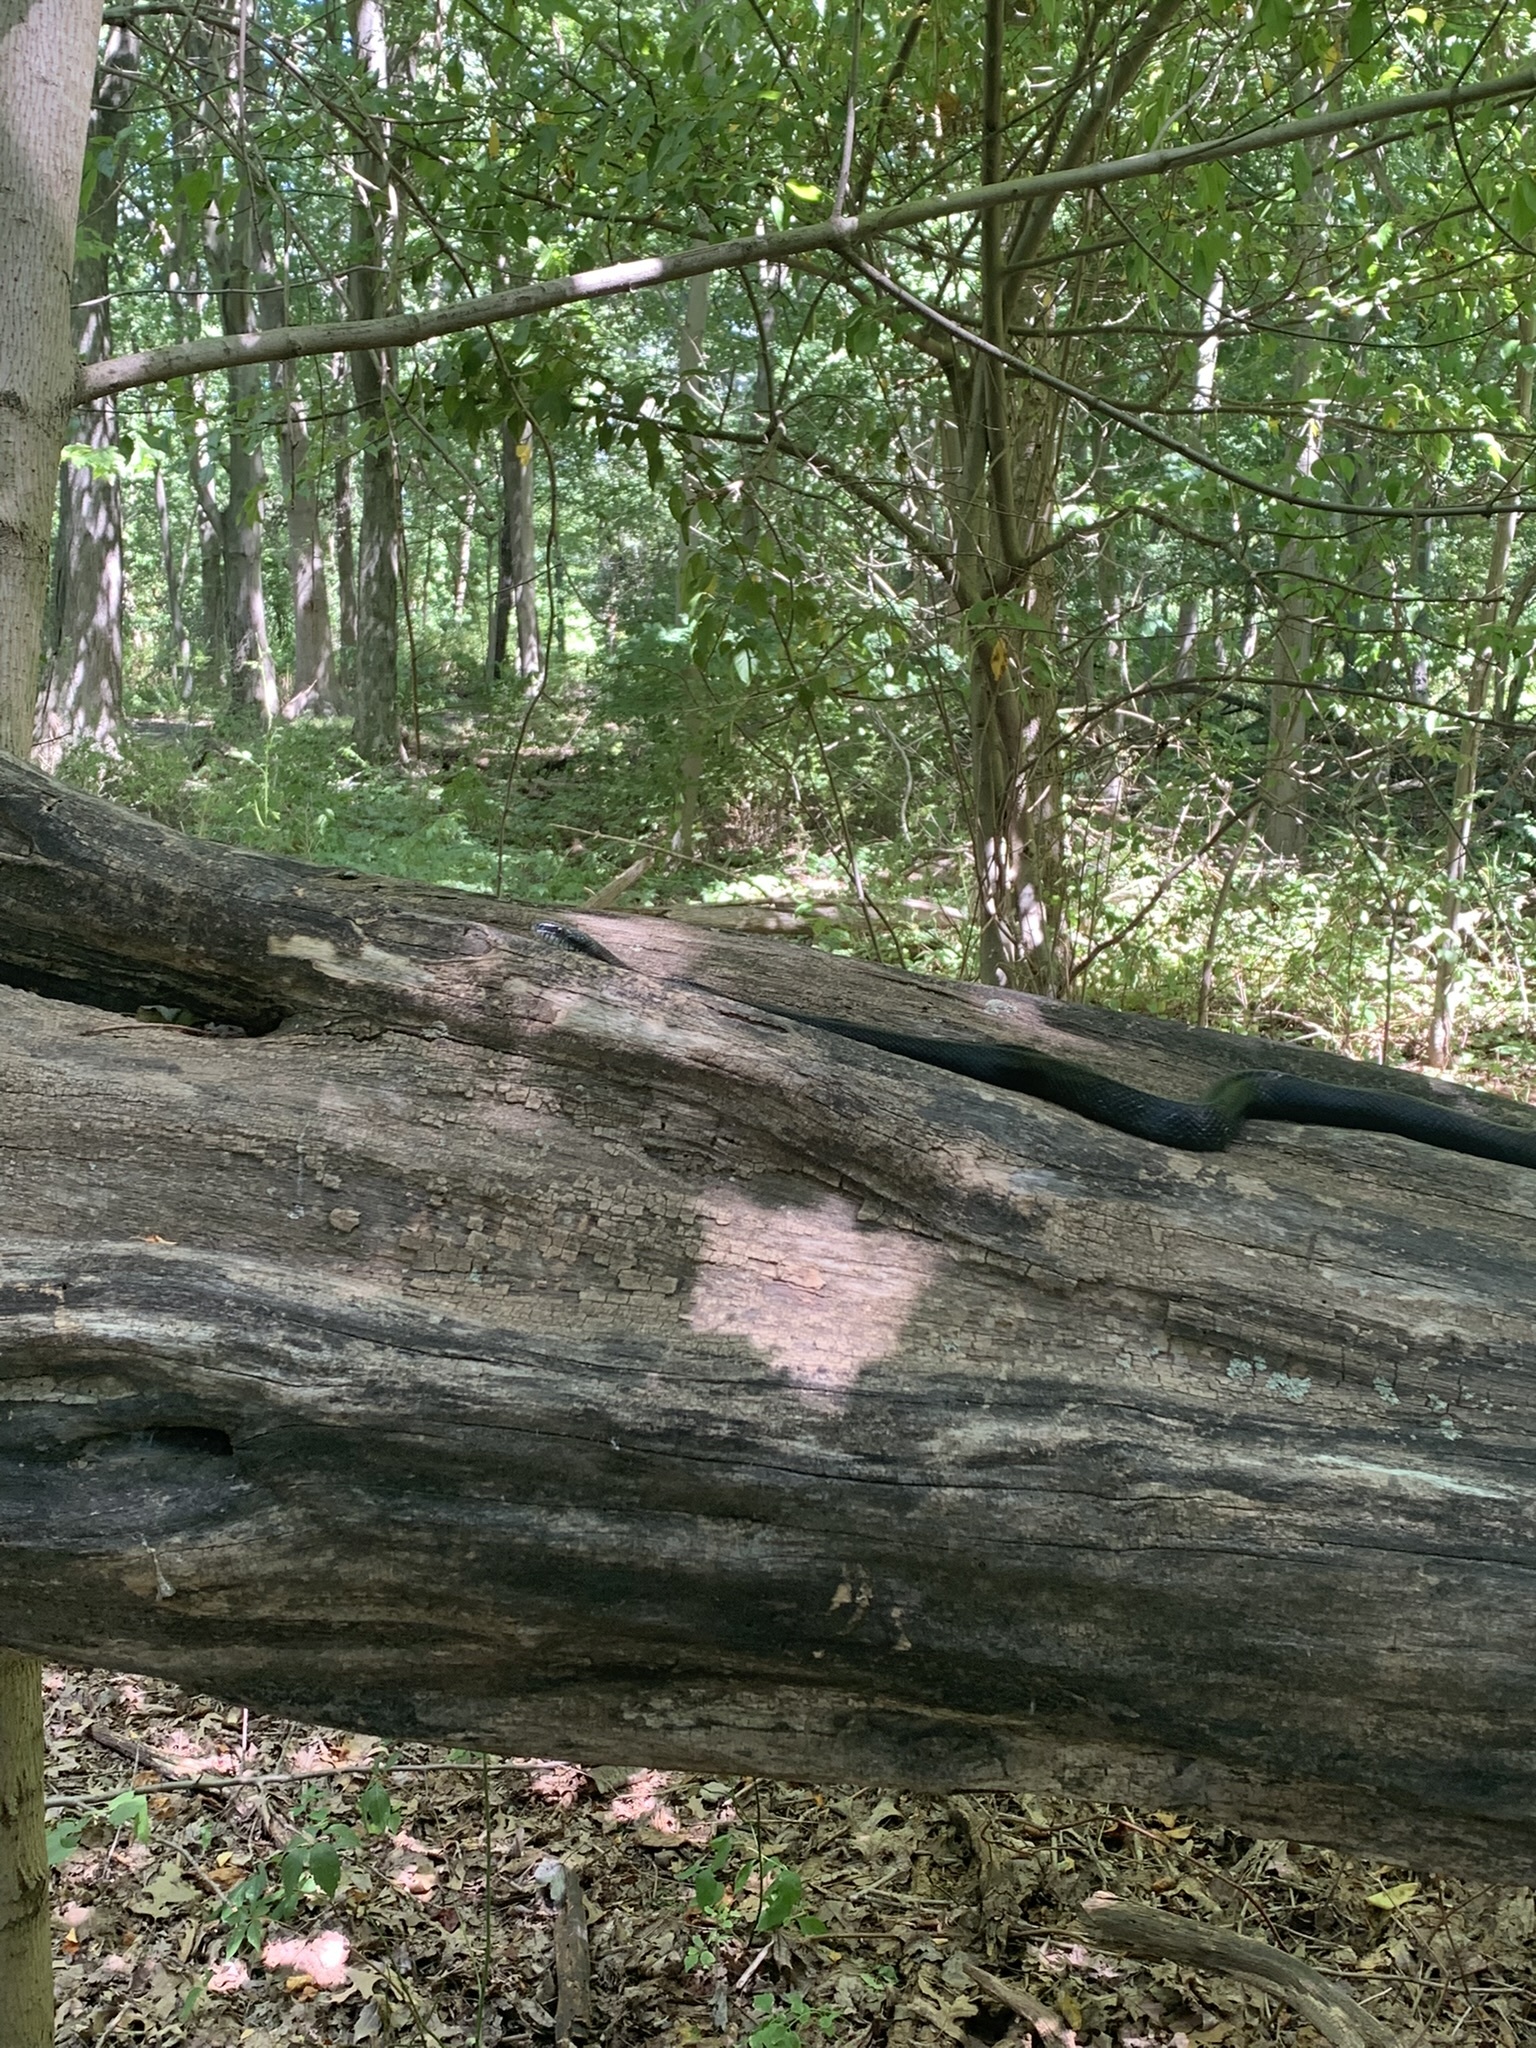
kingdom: Animalia
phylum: Chordata
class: Squamata
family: Colubridae
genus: Pantherophis
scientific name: Pantherophis alleghaniensis
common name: Eastern rat snake
